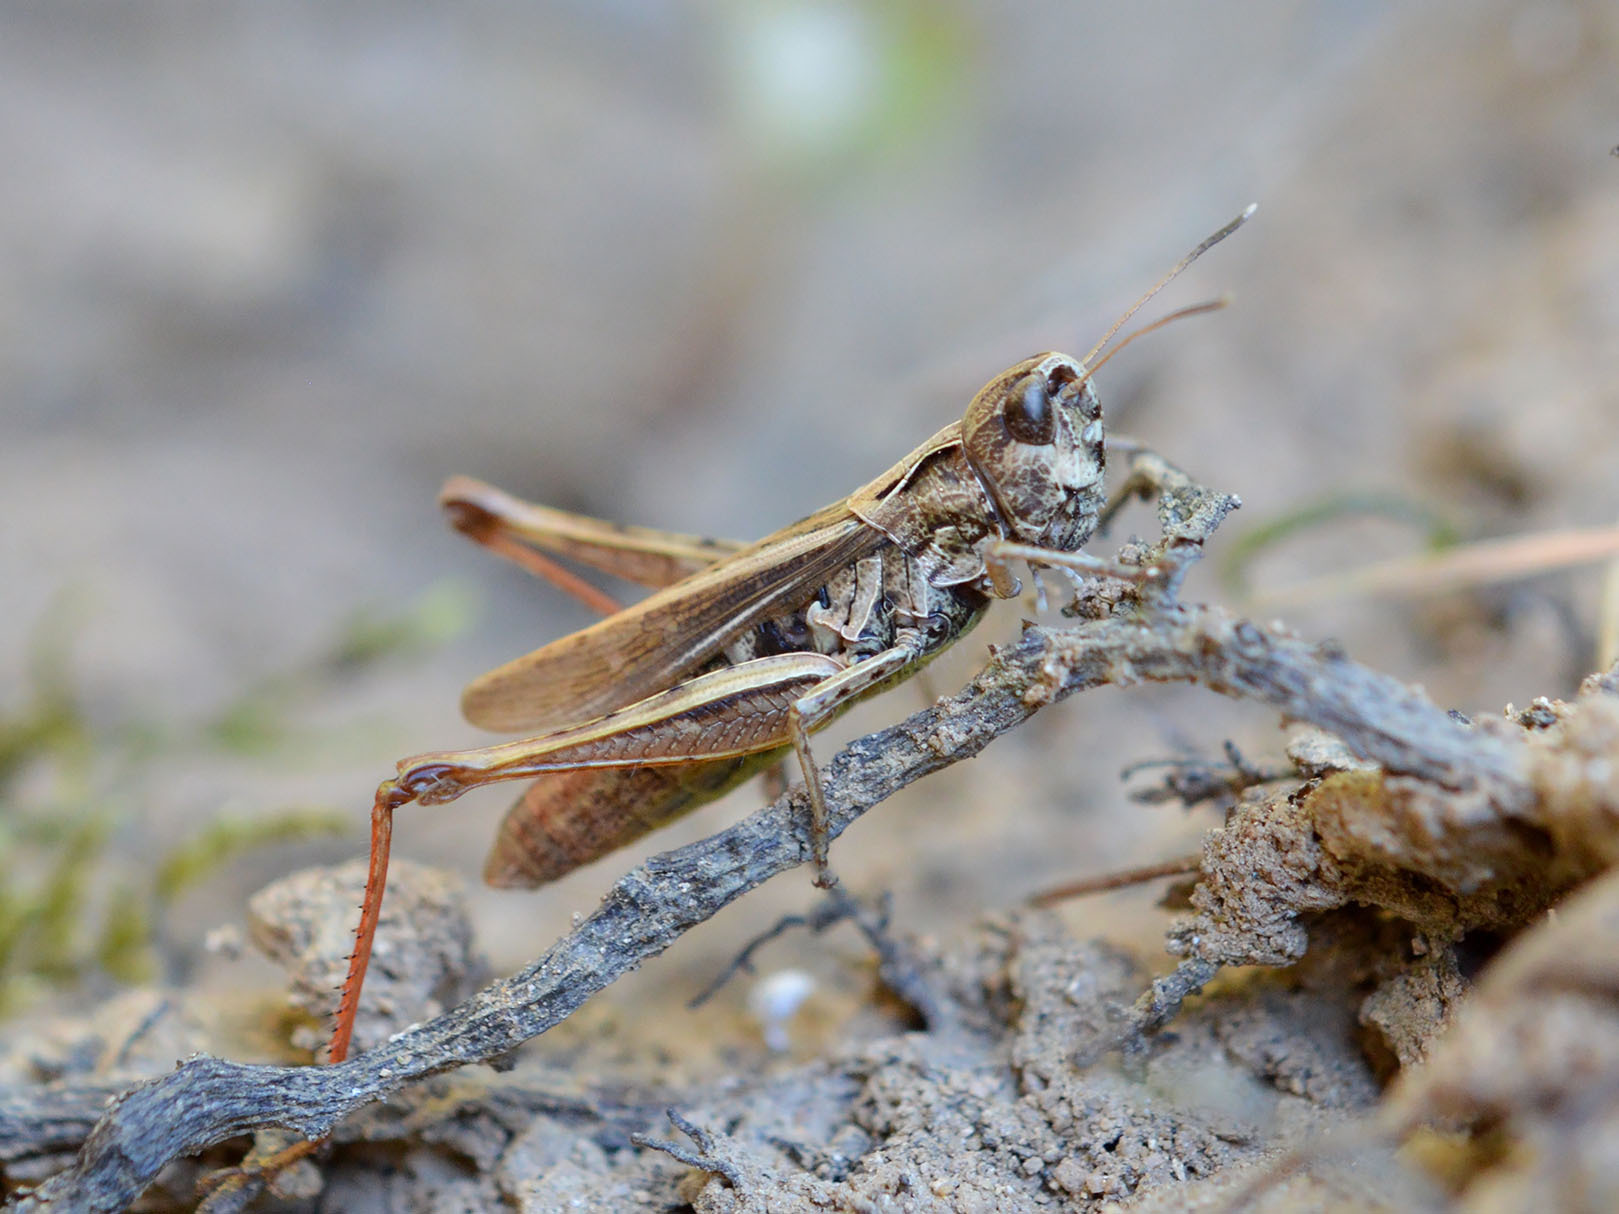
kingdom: Animalia
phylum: Arthropoda
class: Insecta
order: Orthoptera
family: Acrididae
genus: Gomphocerippus
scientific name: Gomphocerippus rufus
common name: Rufous grasshopper
